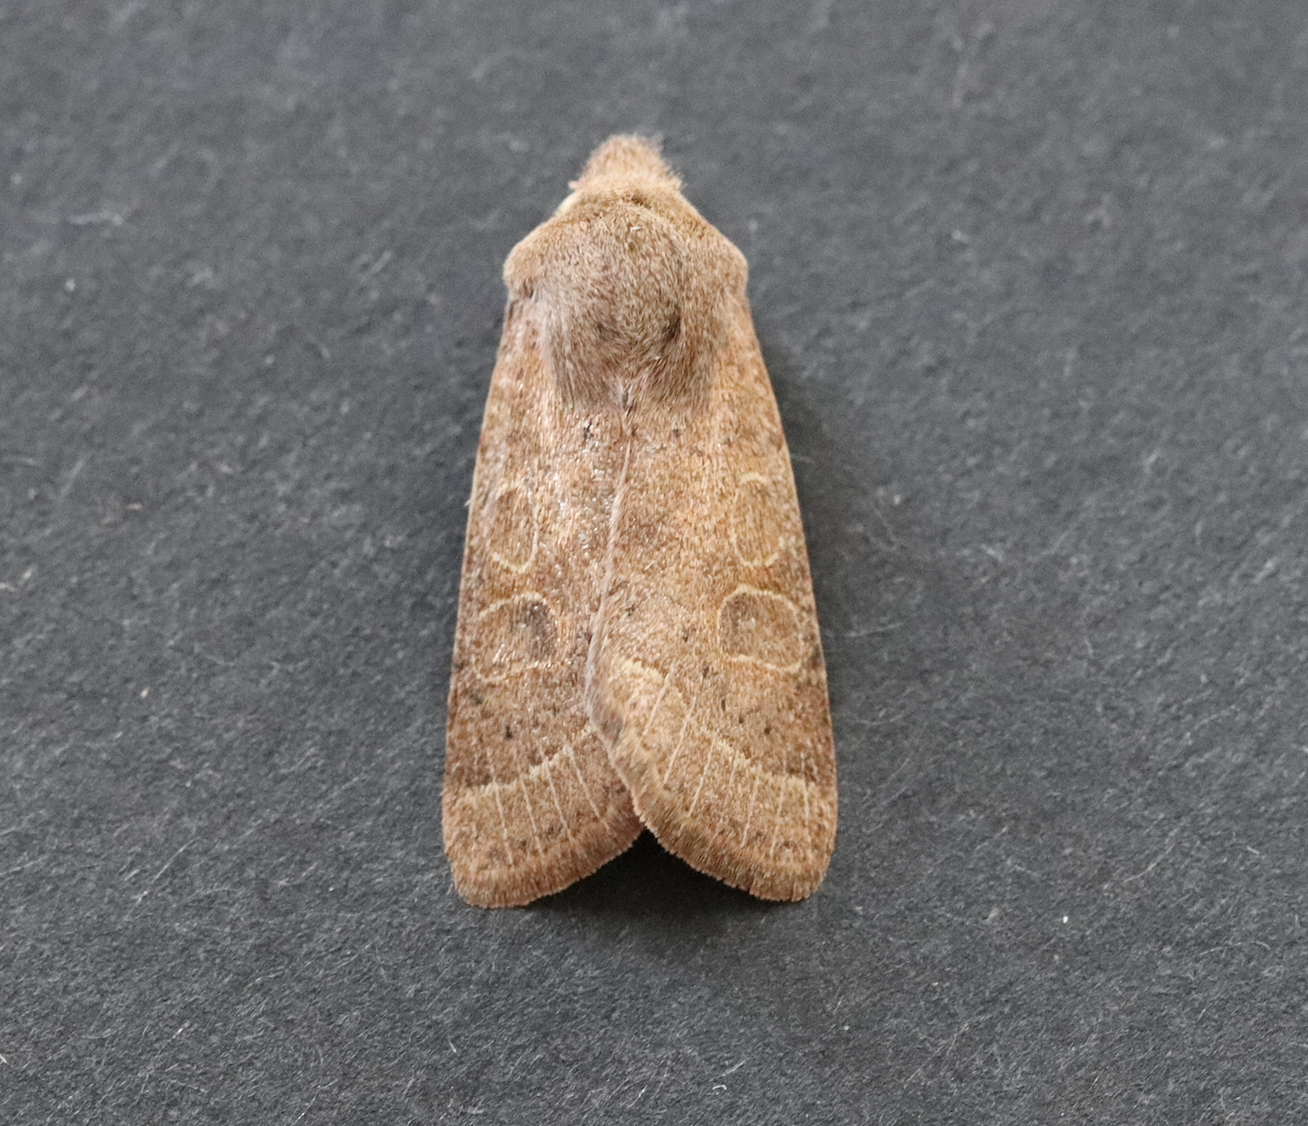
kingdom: Animalia
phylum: Arthropoda
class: Insecta
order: Lepidoptera
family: Noctuidae
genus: Orthosia
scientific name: Orthosia cerasi
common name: Common quaker
